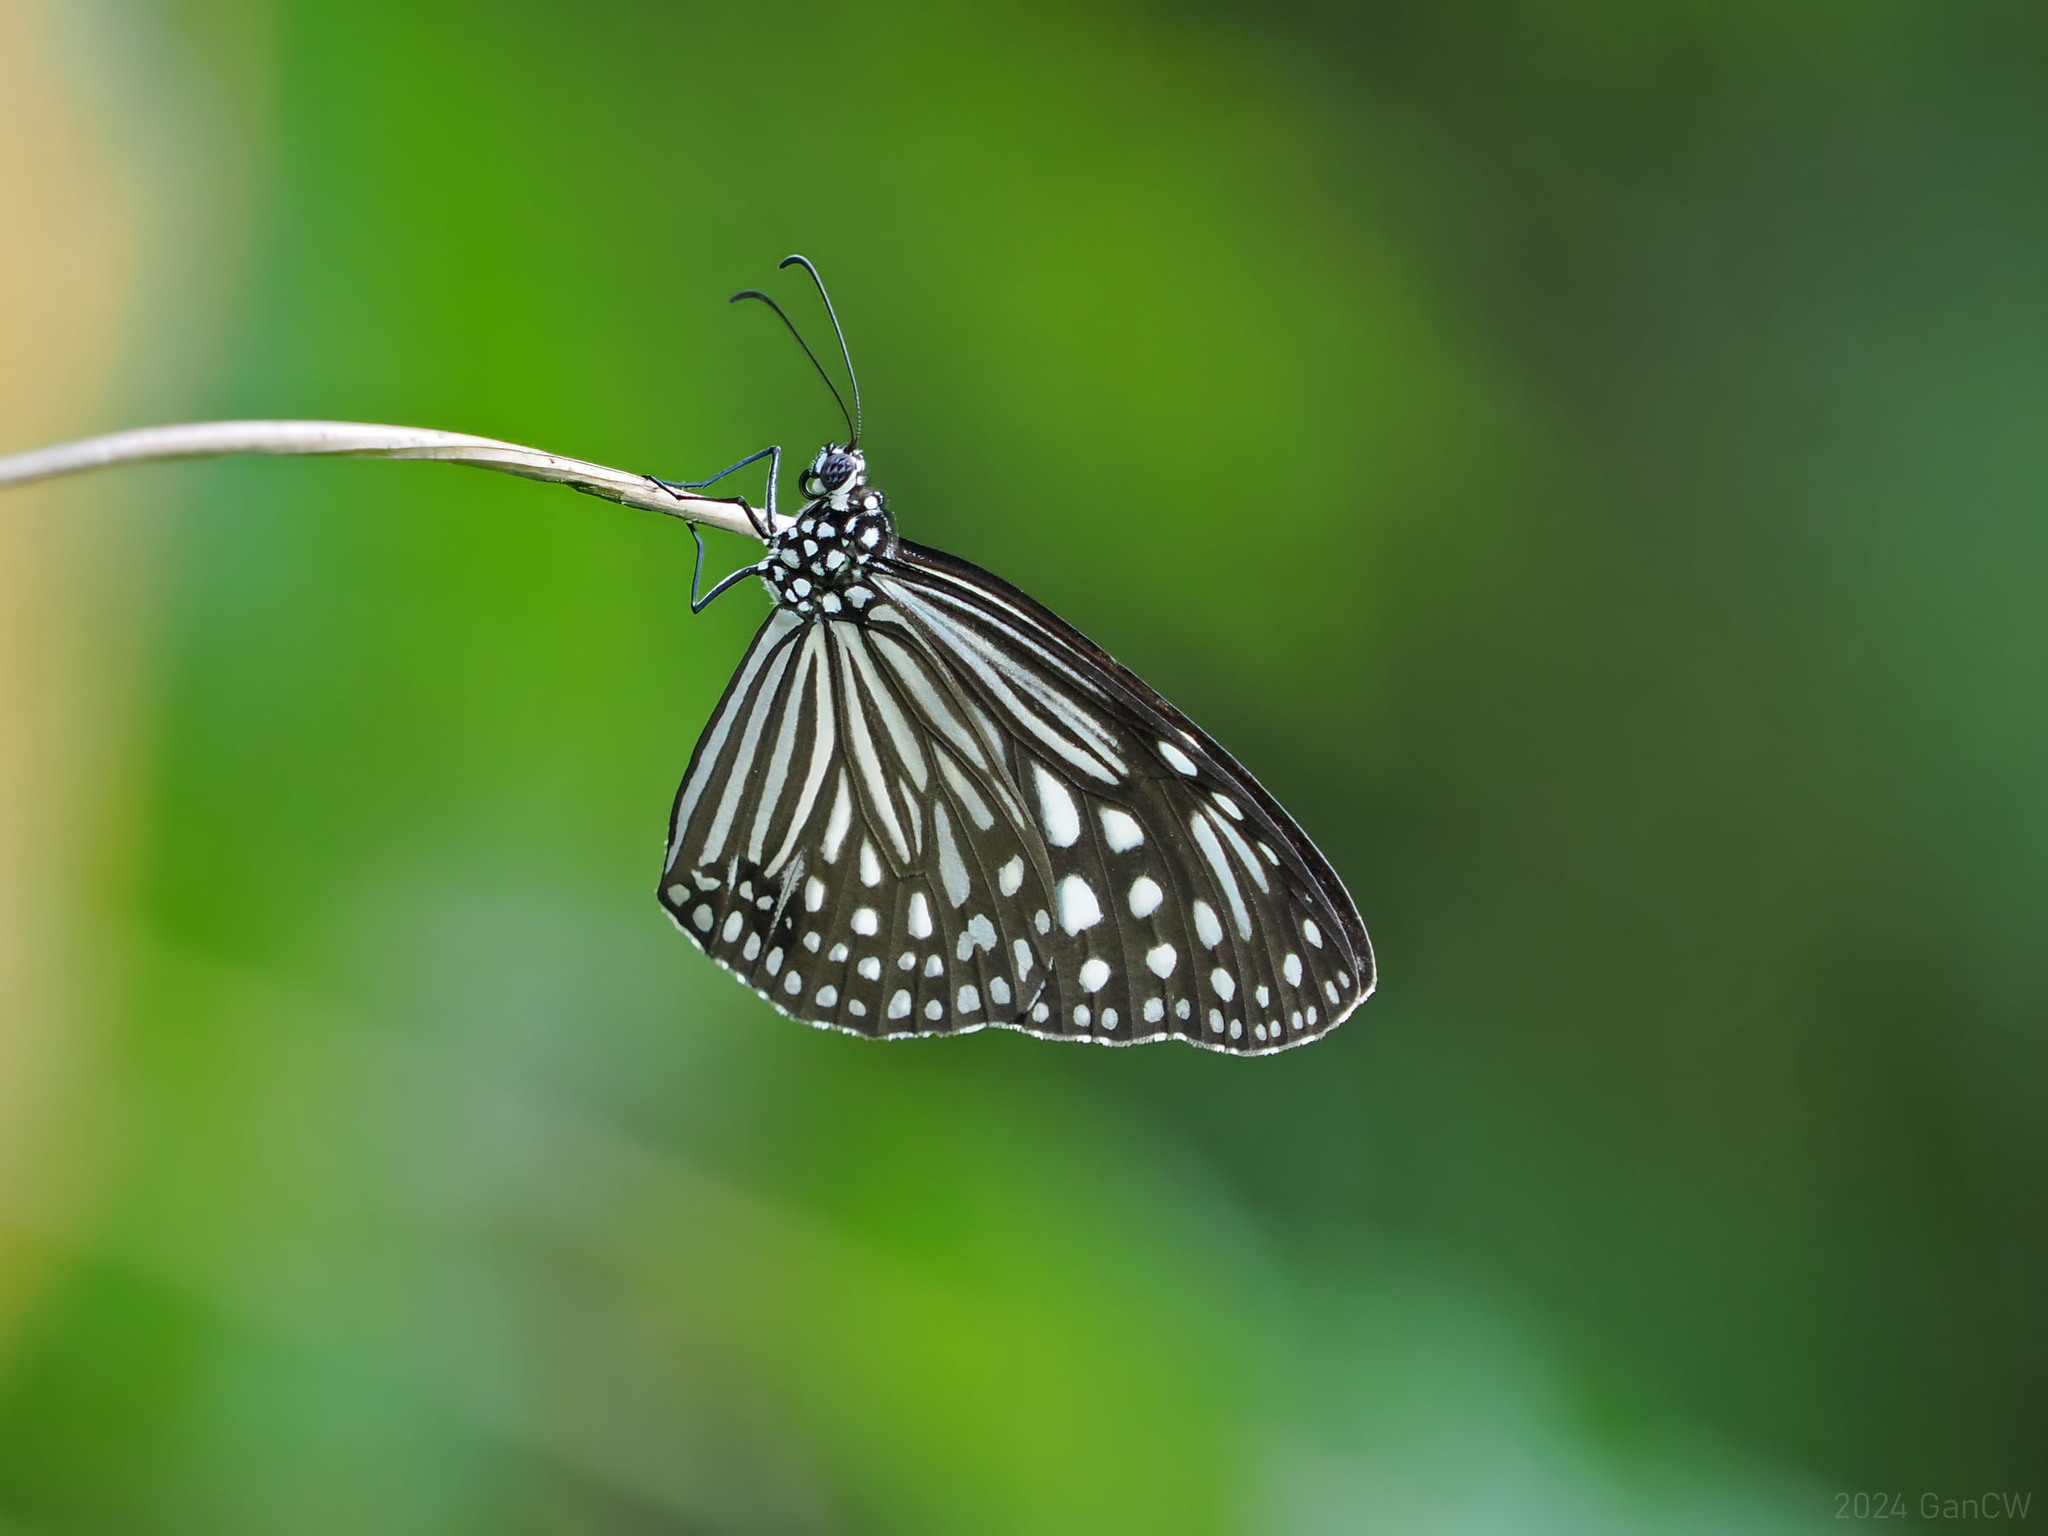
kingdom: Animalia
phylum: Arthropoda
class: Insecta
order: Lepidoptera
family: Nymphalidae
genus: Parantica
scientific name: Parantica agleoides
